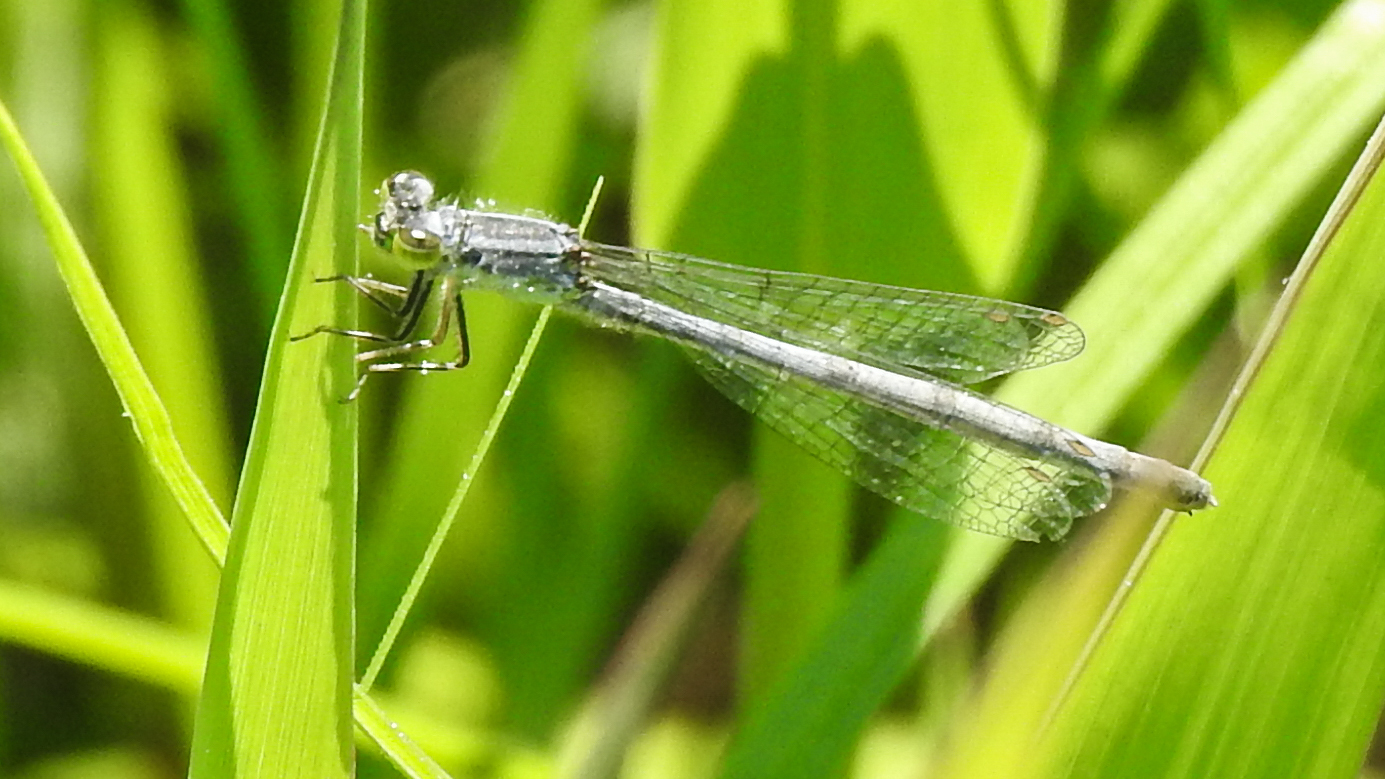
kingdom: Animalia
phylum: Arthropoda
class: Insecta
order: Odonata
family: Coenagrionidae
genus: Ischnura
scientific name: Ischnura verticalis
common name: Eastern forktail
